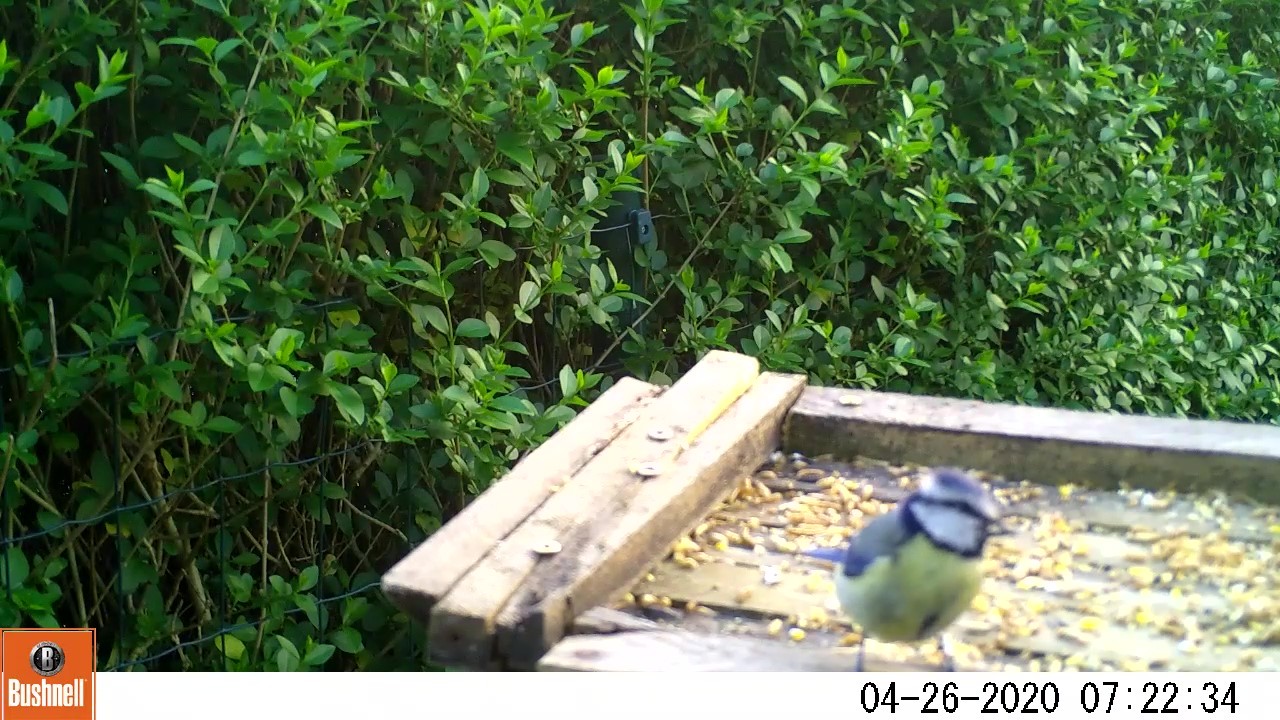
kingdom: Animalia
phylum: Chordata
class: Aves
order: Passeriformes
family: Paridae
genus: Cyanistes
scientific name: Cyanistes caeruleus
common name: Eurasian blue tit
